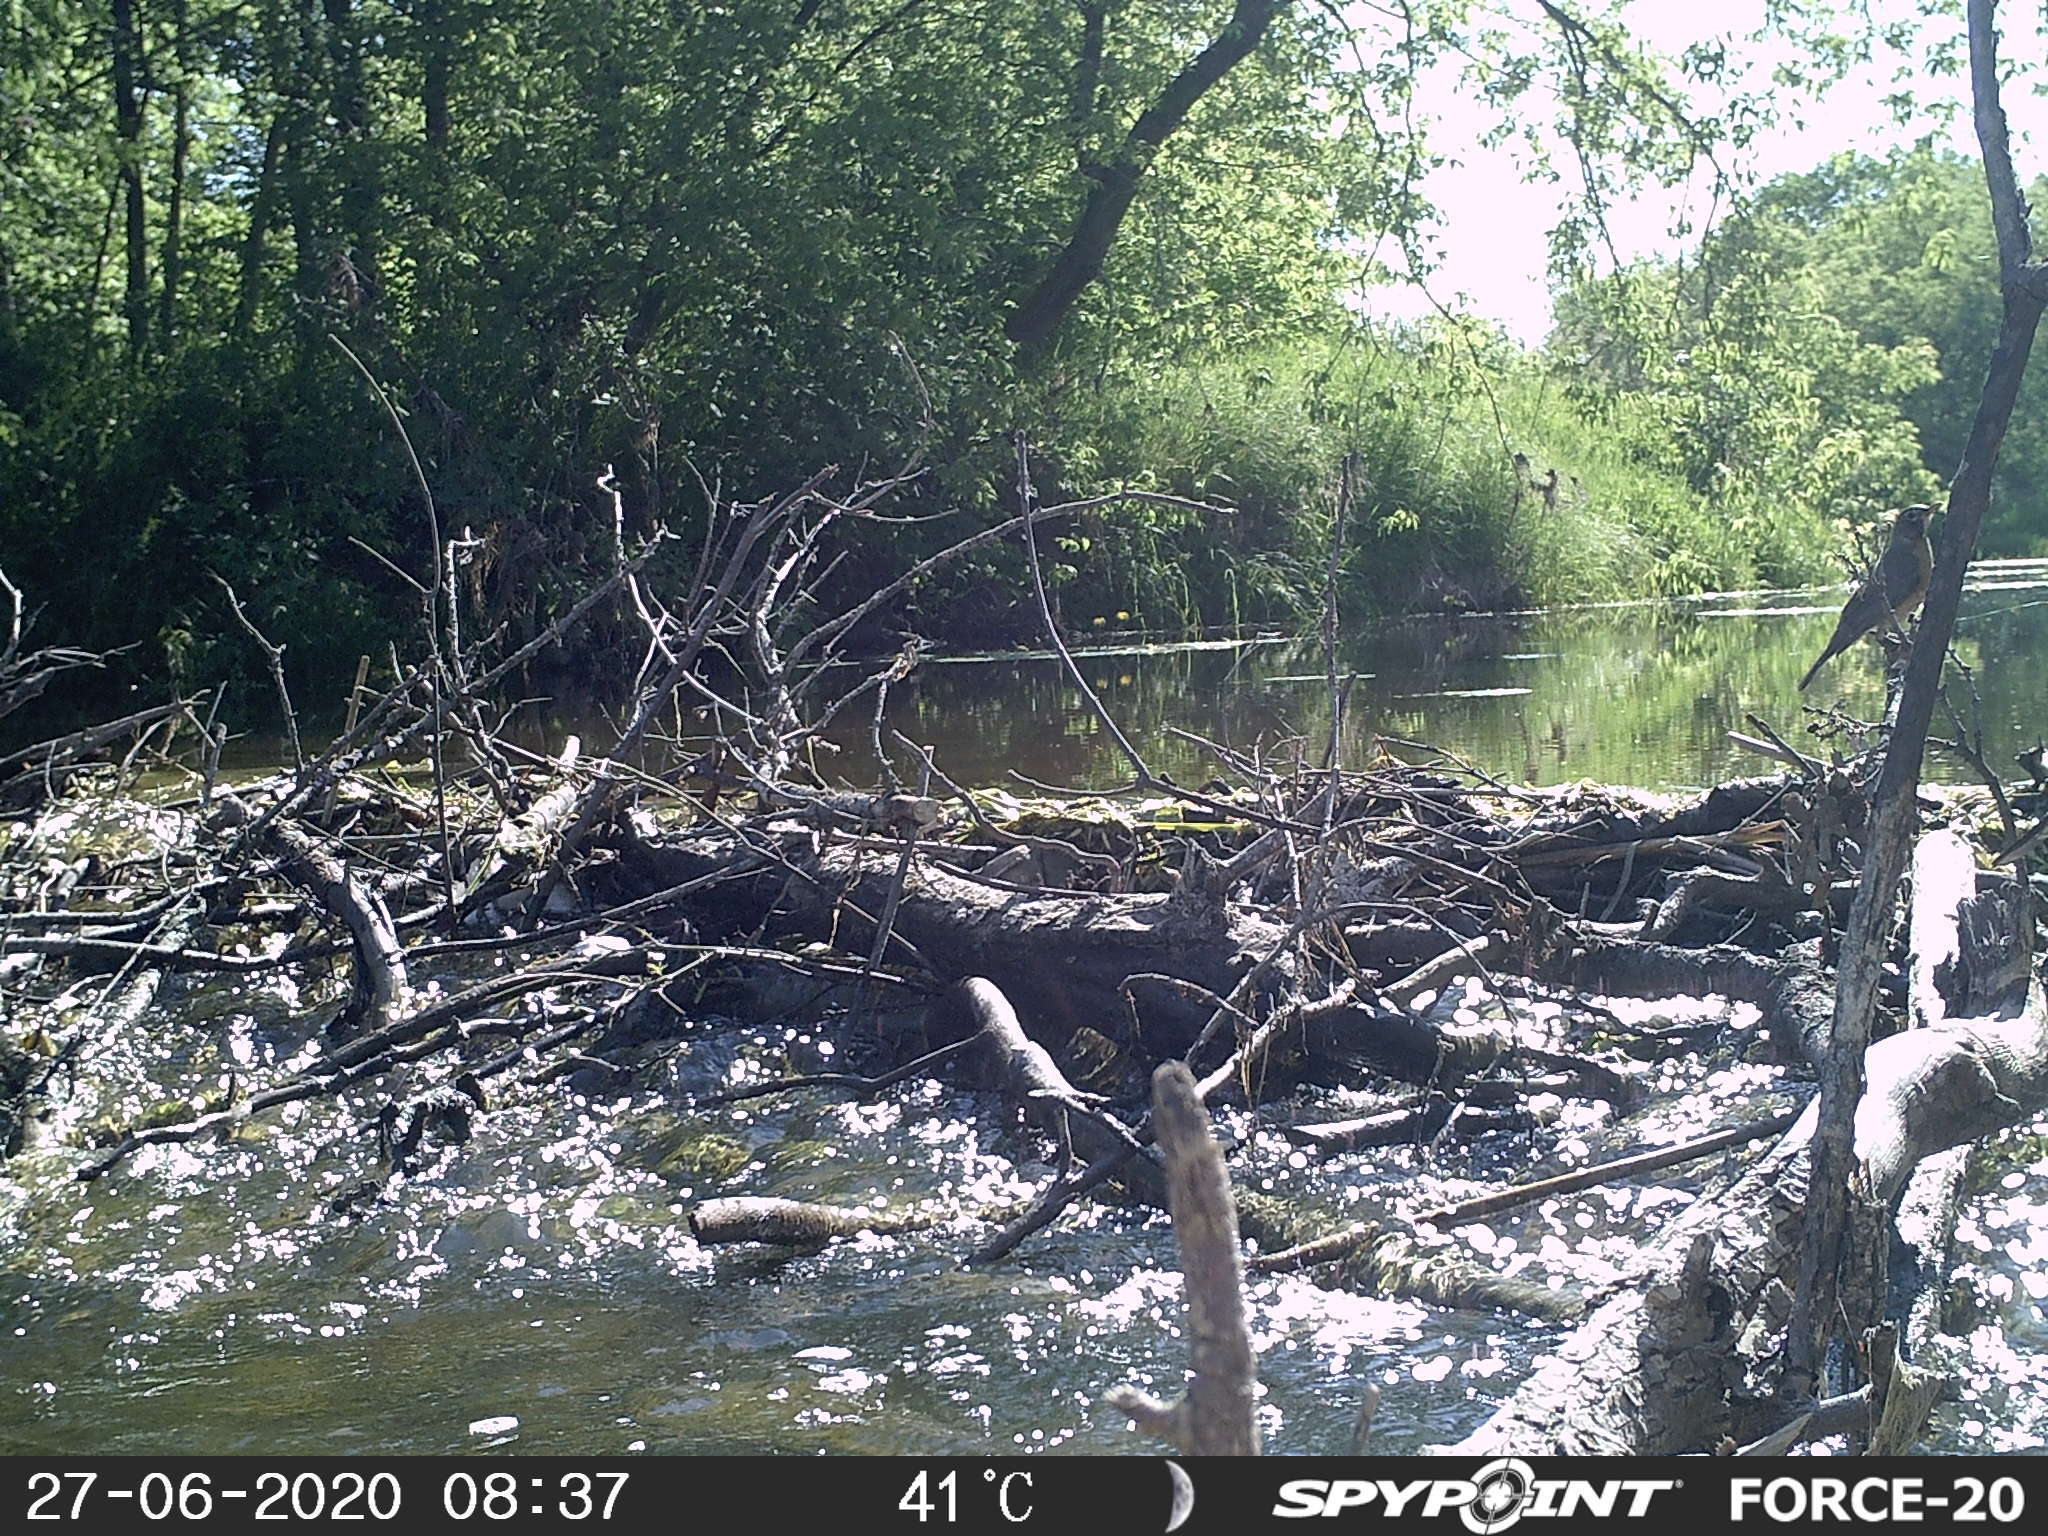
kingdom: Animalia
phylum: Chordata
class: Aves
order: Passeriformes
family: Turdidae
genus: Turdus
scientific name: Turdus migratorius
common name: American robin
